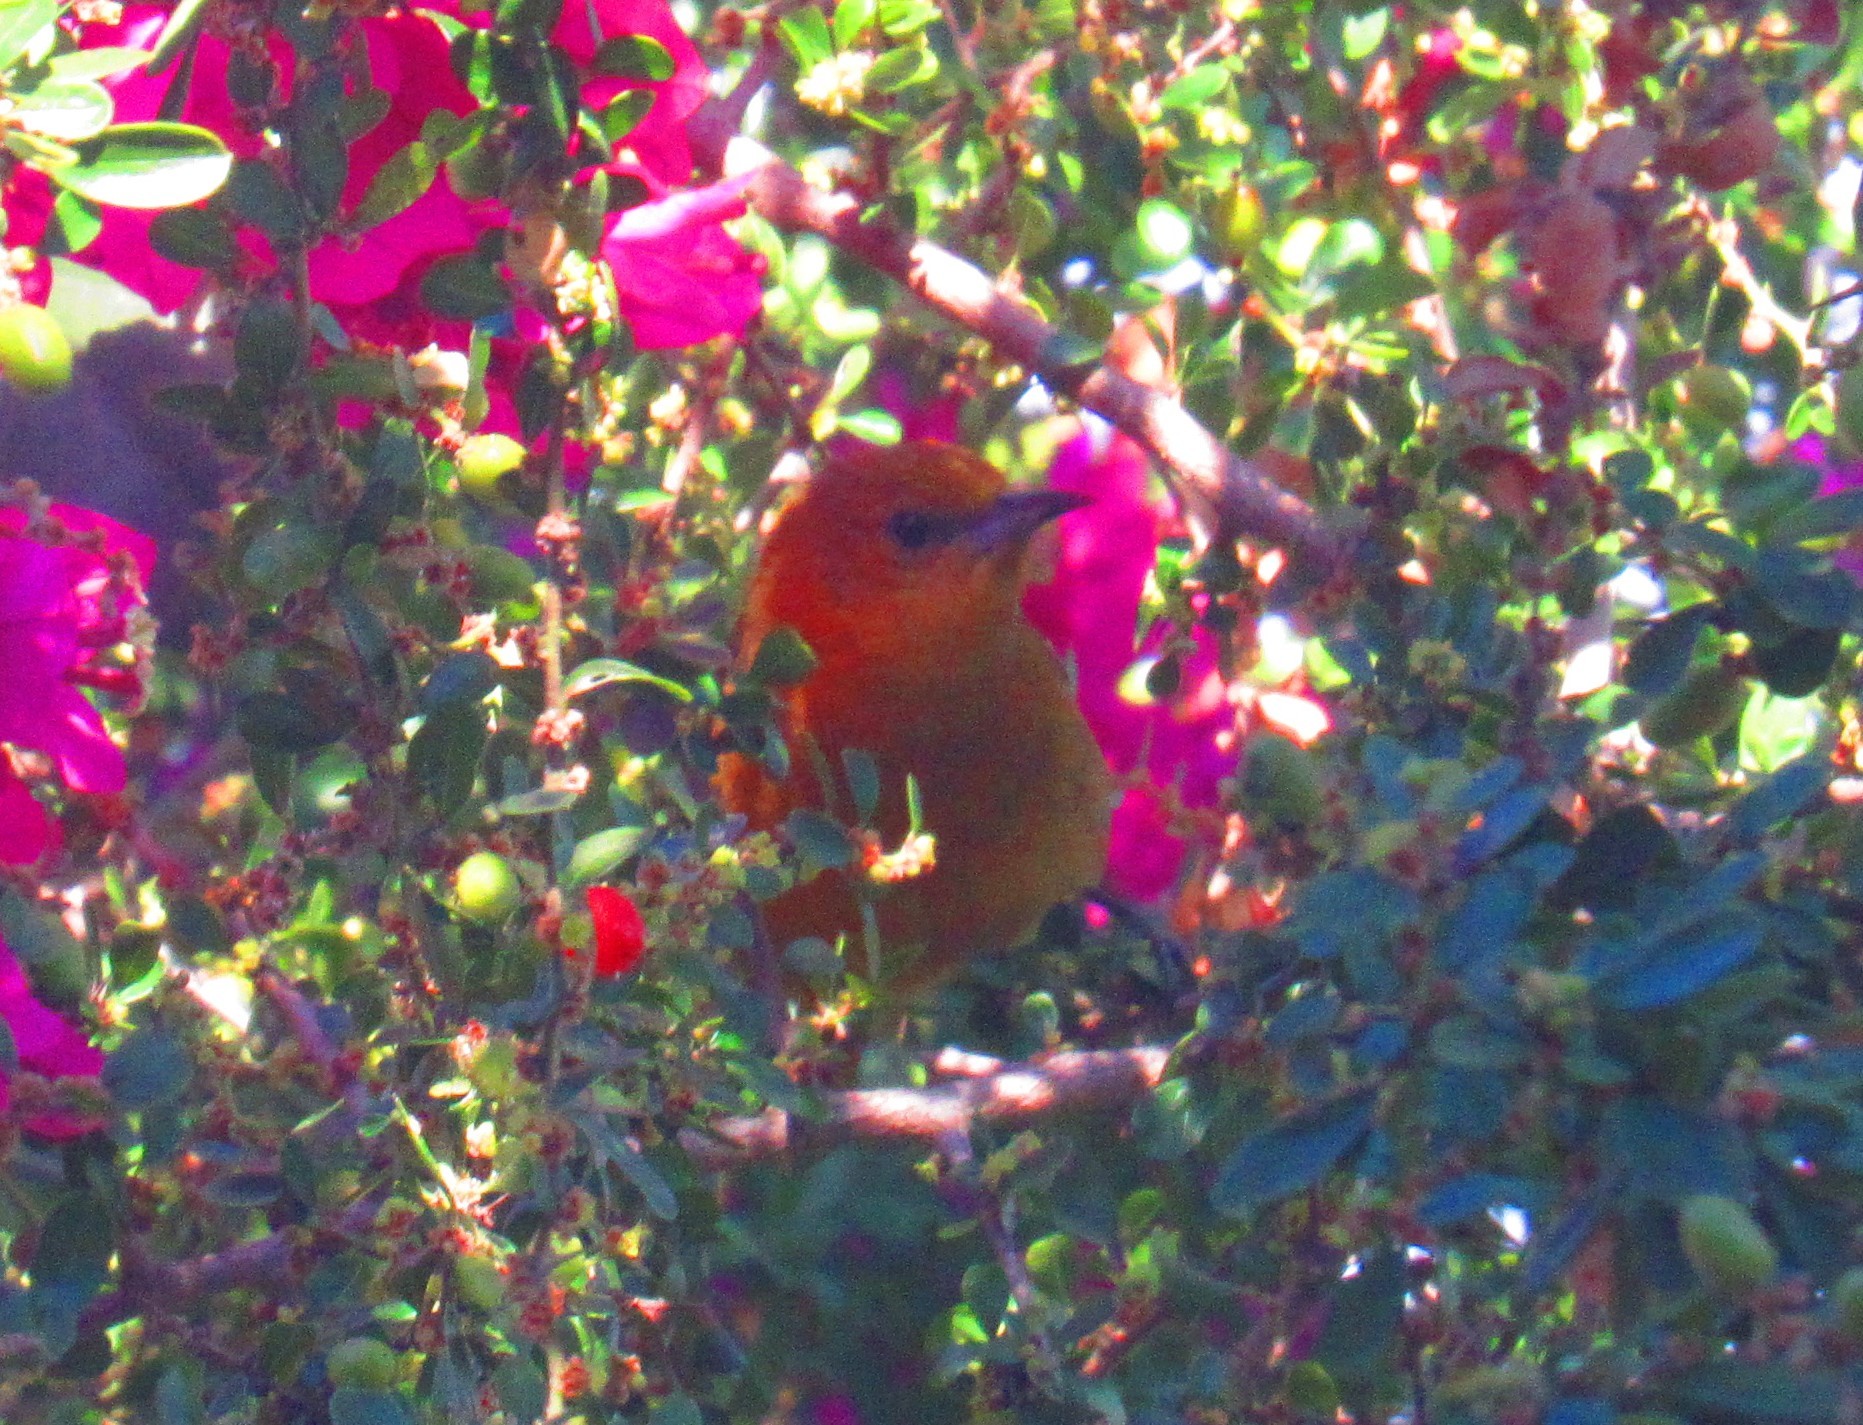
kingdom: Animalia
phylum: Chordata
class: Aves
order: Passeriformes
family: Icteridae
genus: Icterus
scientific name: Icterus cucullatus
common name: Hooded oriole
